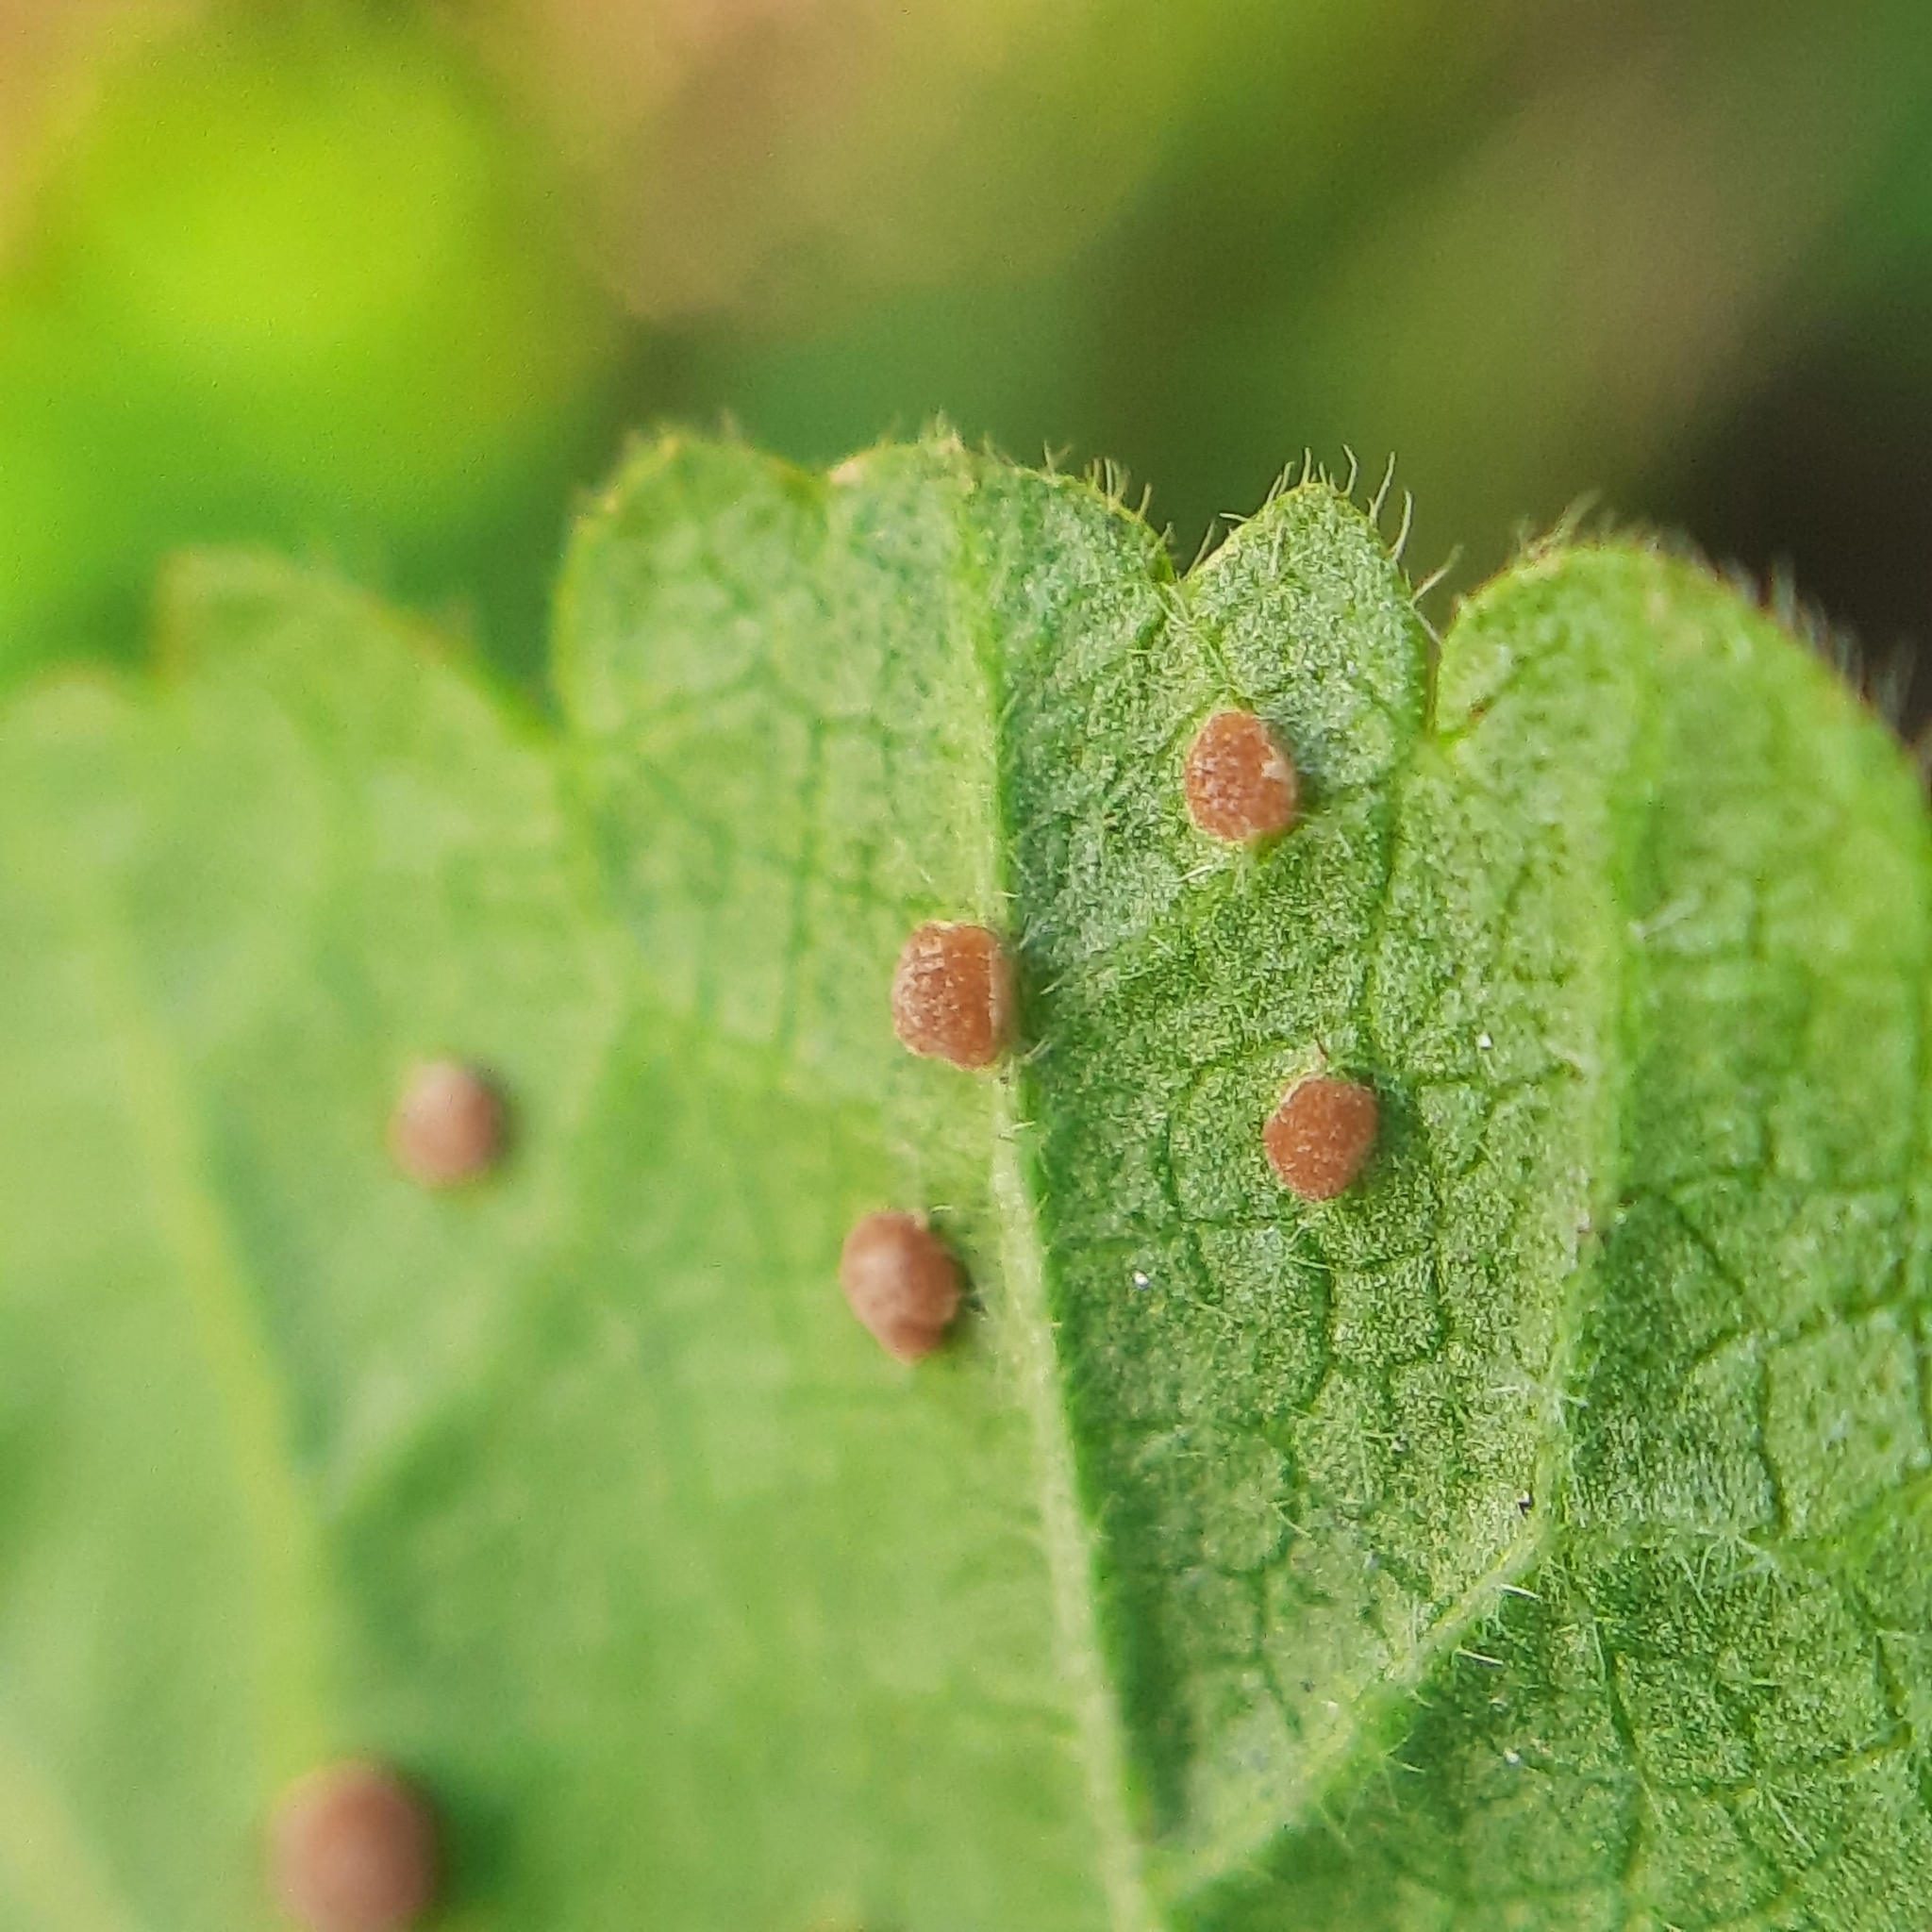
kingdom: Fungi
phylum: Basidiomycota
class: Pucciniomycetes
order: Pucciniales
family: Pucciniaceae
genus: Puccinia
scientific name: Puccinia malvacearum
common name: Hollyhock rust
